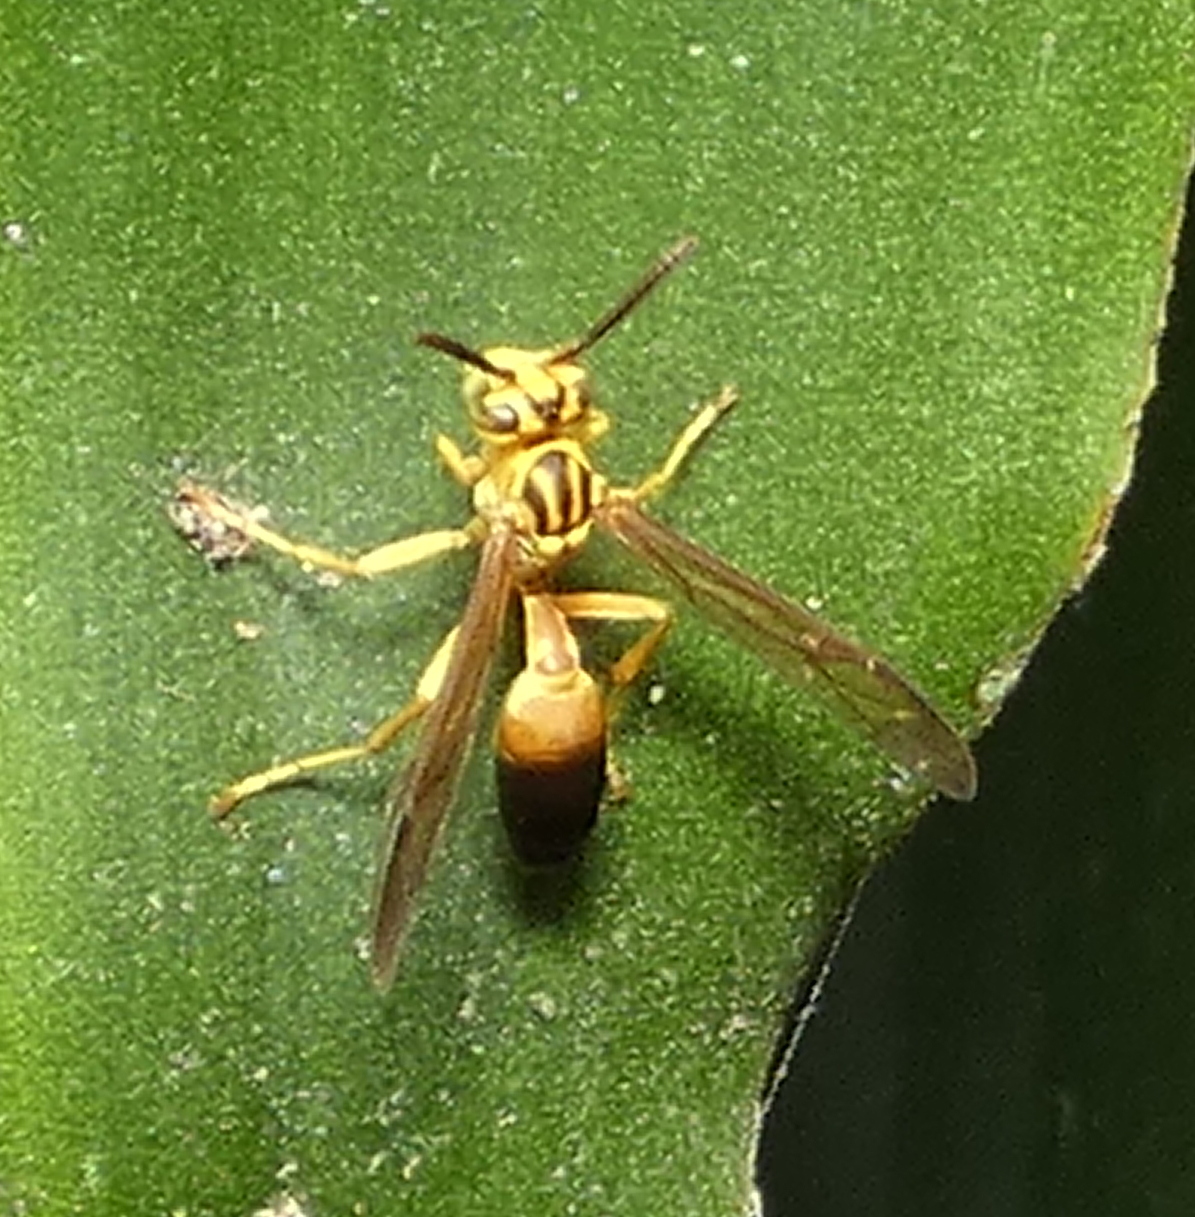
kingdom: Animalia
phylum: Arthropoda
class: Insecta
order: Hymenoptera
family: Vespidae
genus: Agelaia
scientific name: Agelaia pallipes
